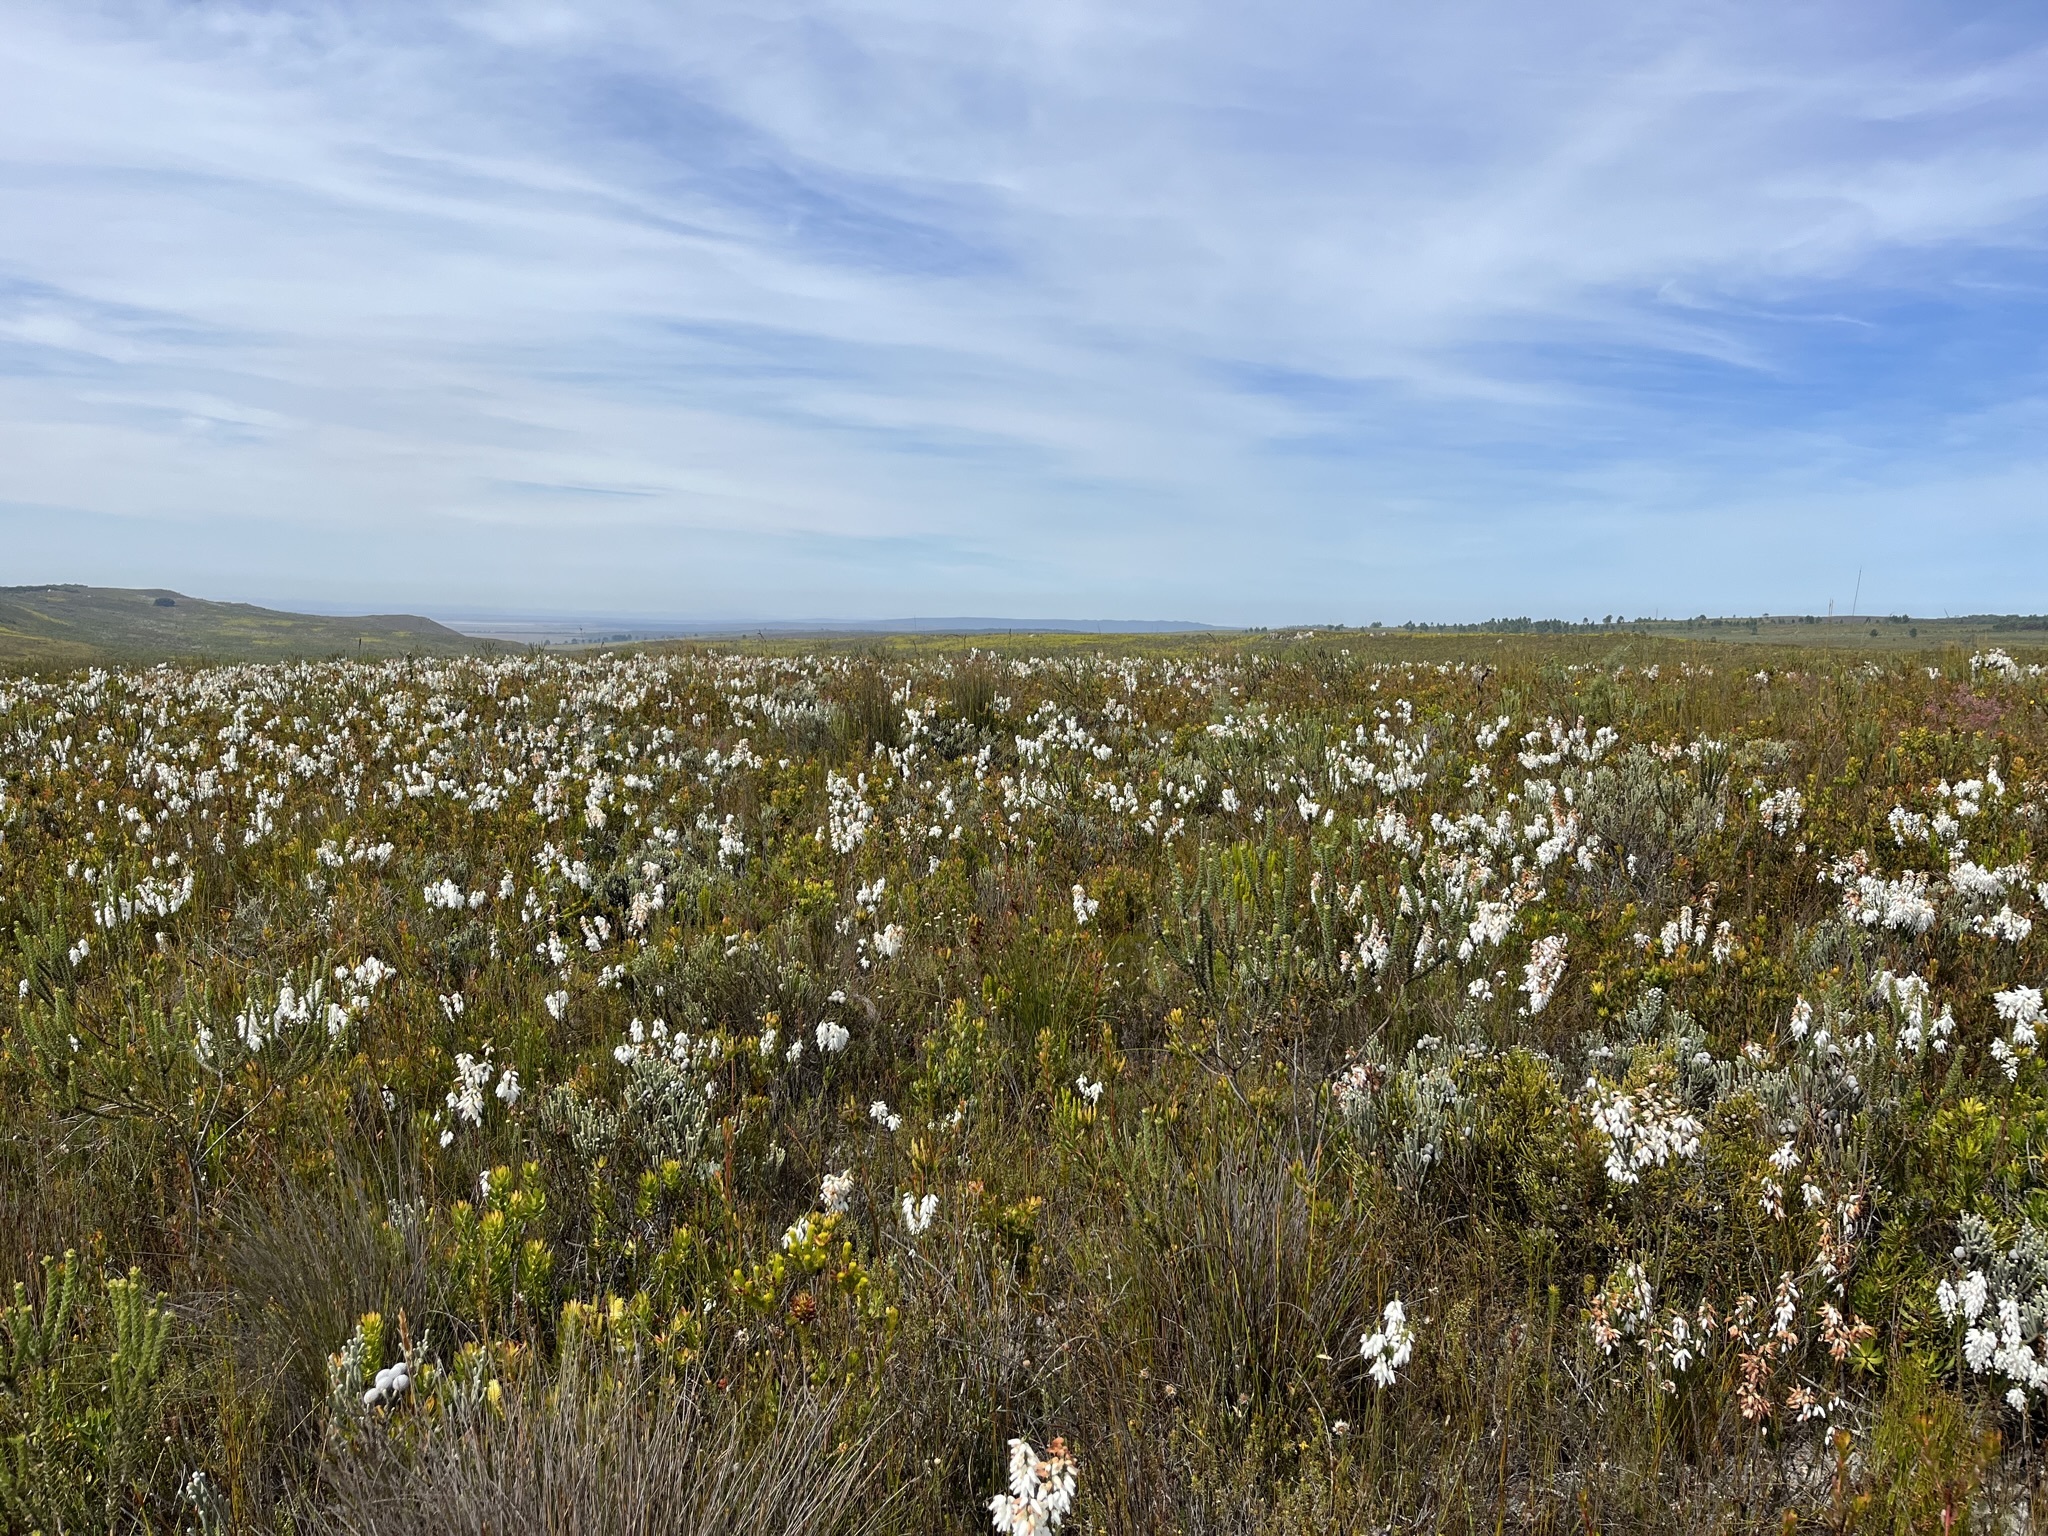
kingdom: Plantae
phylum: Tracheophyta
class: Magnoliopsida
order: Ericales
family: Ericaceae
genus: Erica
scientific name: Erica penduliflora
